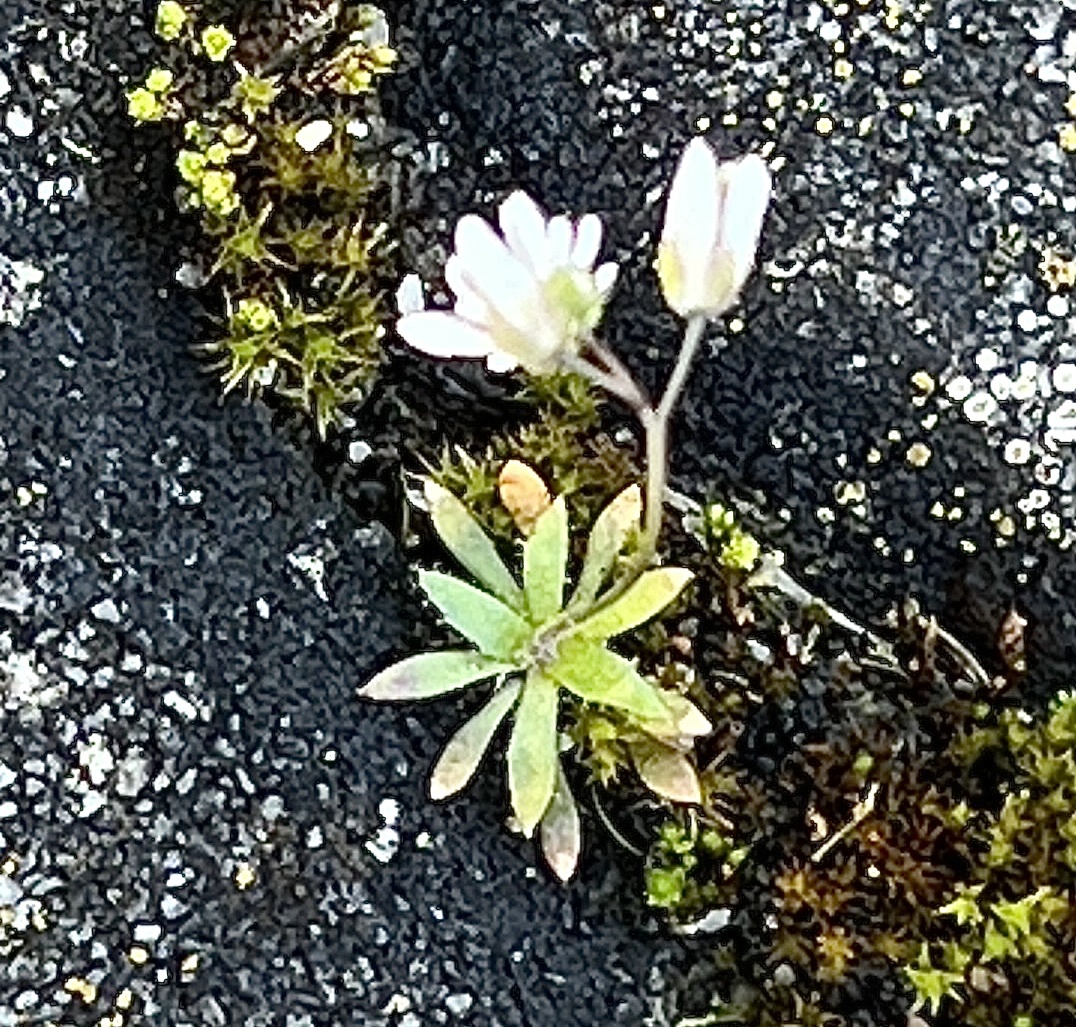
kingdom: Plantae
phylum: Tracheophyta
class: Magnoliopsida
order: Brassicales
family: Brassicaceae
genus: Draba
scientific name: Draba verna
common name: Spring draba
